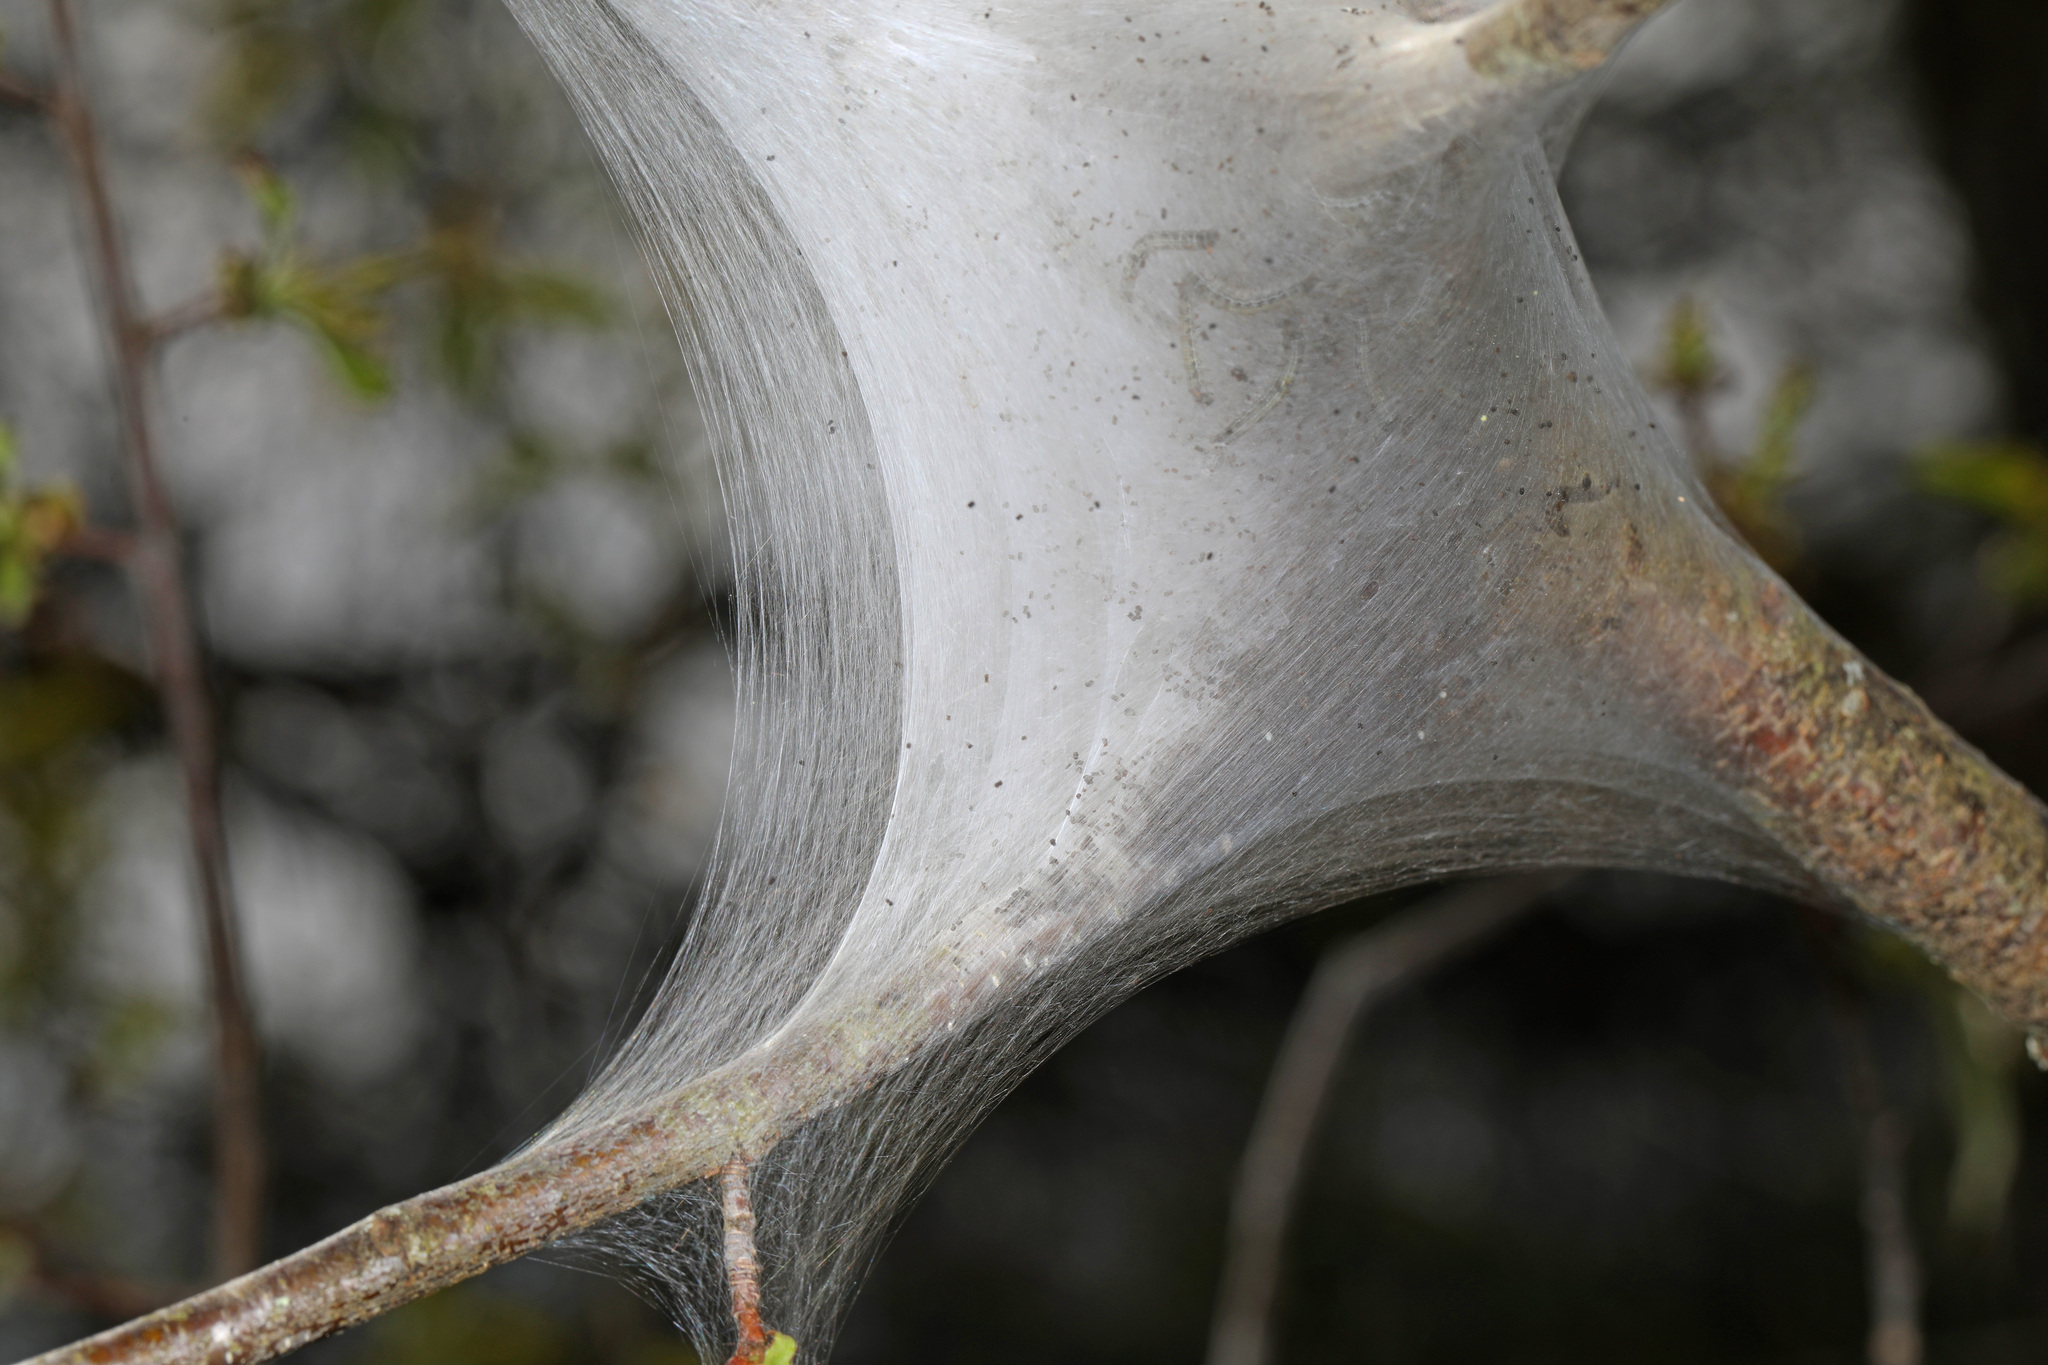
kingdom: Animalia
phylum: Arthropoda
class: Insecta
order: Lepidoptera
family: Lasiocampidae
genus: Malacosoma
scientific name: Malacosoma americana
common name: Eastern tent caterpillar moth
